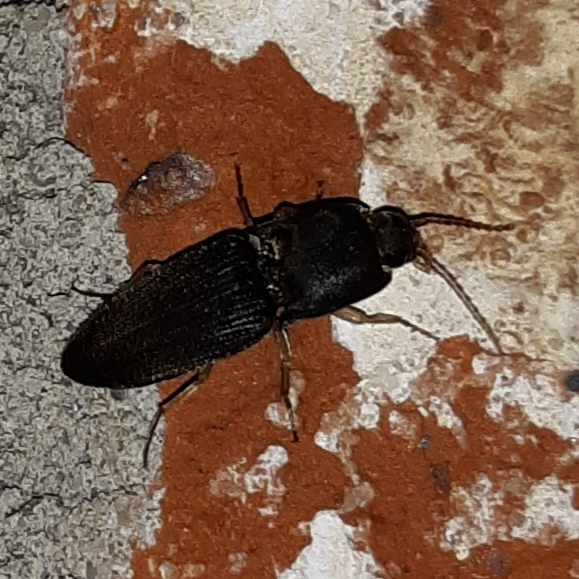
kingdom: Animalia
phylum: Arthropoda
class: Insecta
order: Coleoptera
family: Elateridae
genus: Heteroderes
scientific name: Heteroderes amplicollis
